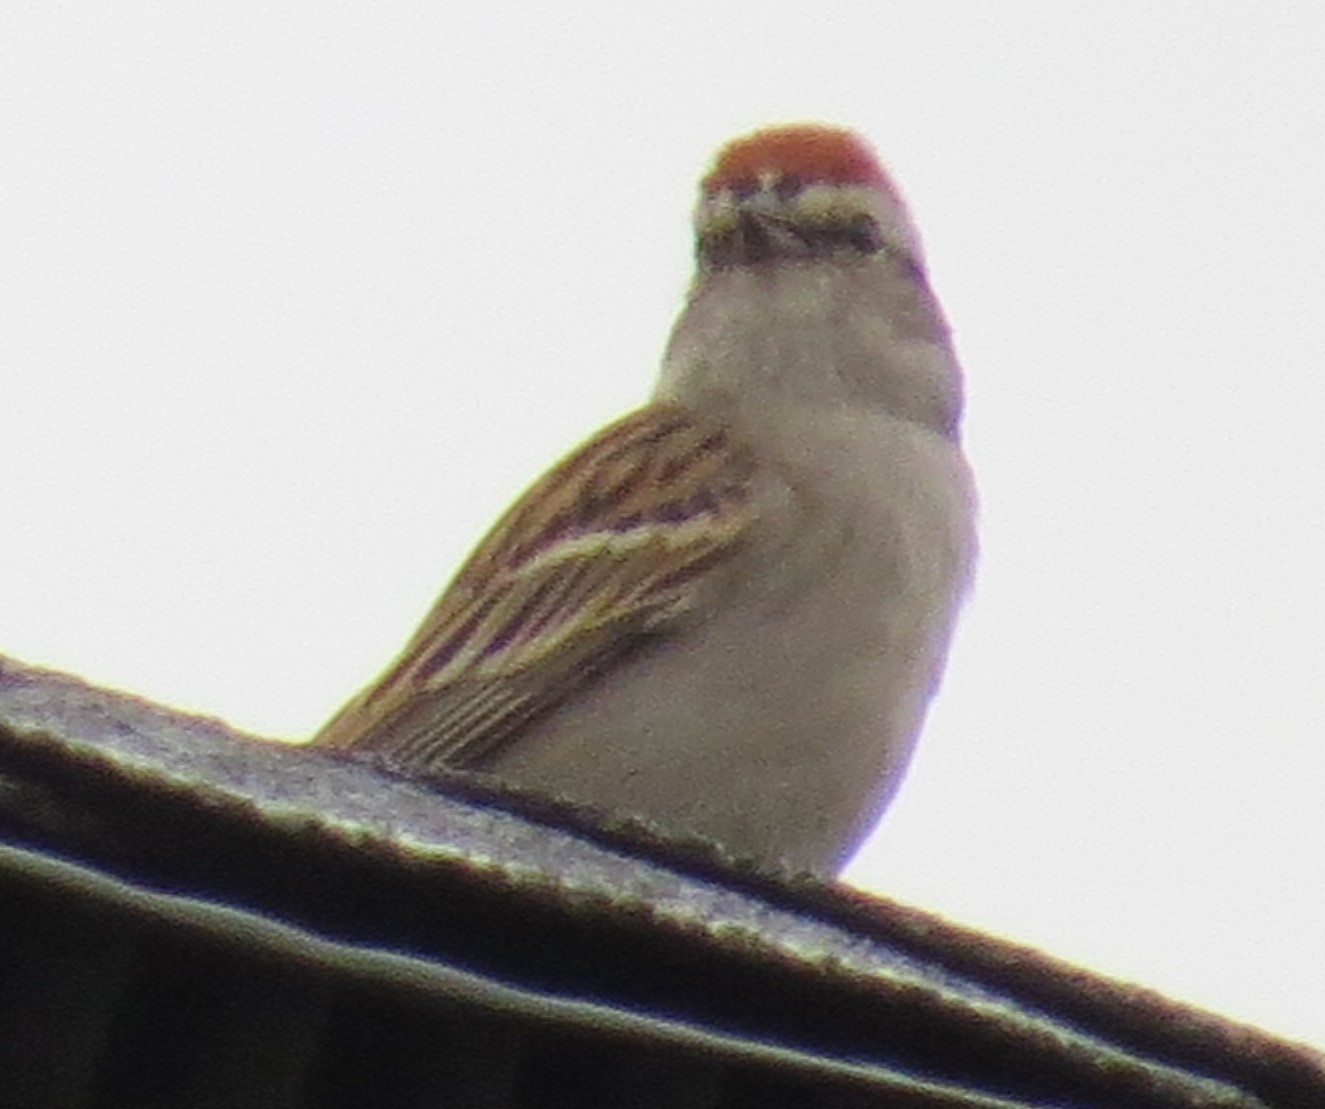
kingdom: Animalia
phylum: Chordata
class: Aves
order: Passeriformes
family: Passerellidae
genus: Spizella
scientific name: Spizella passerina
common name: Chipping sparrow
